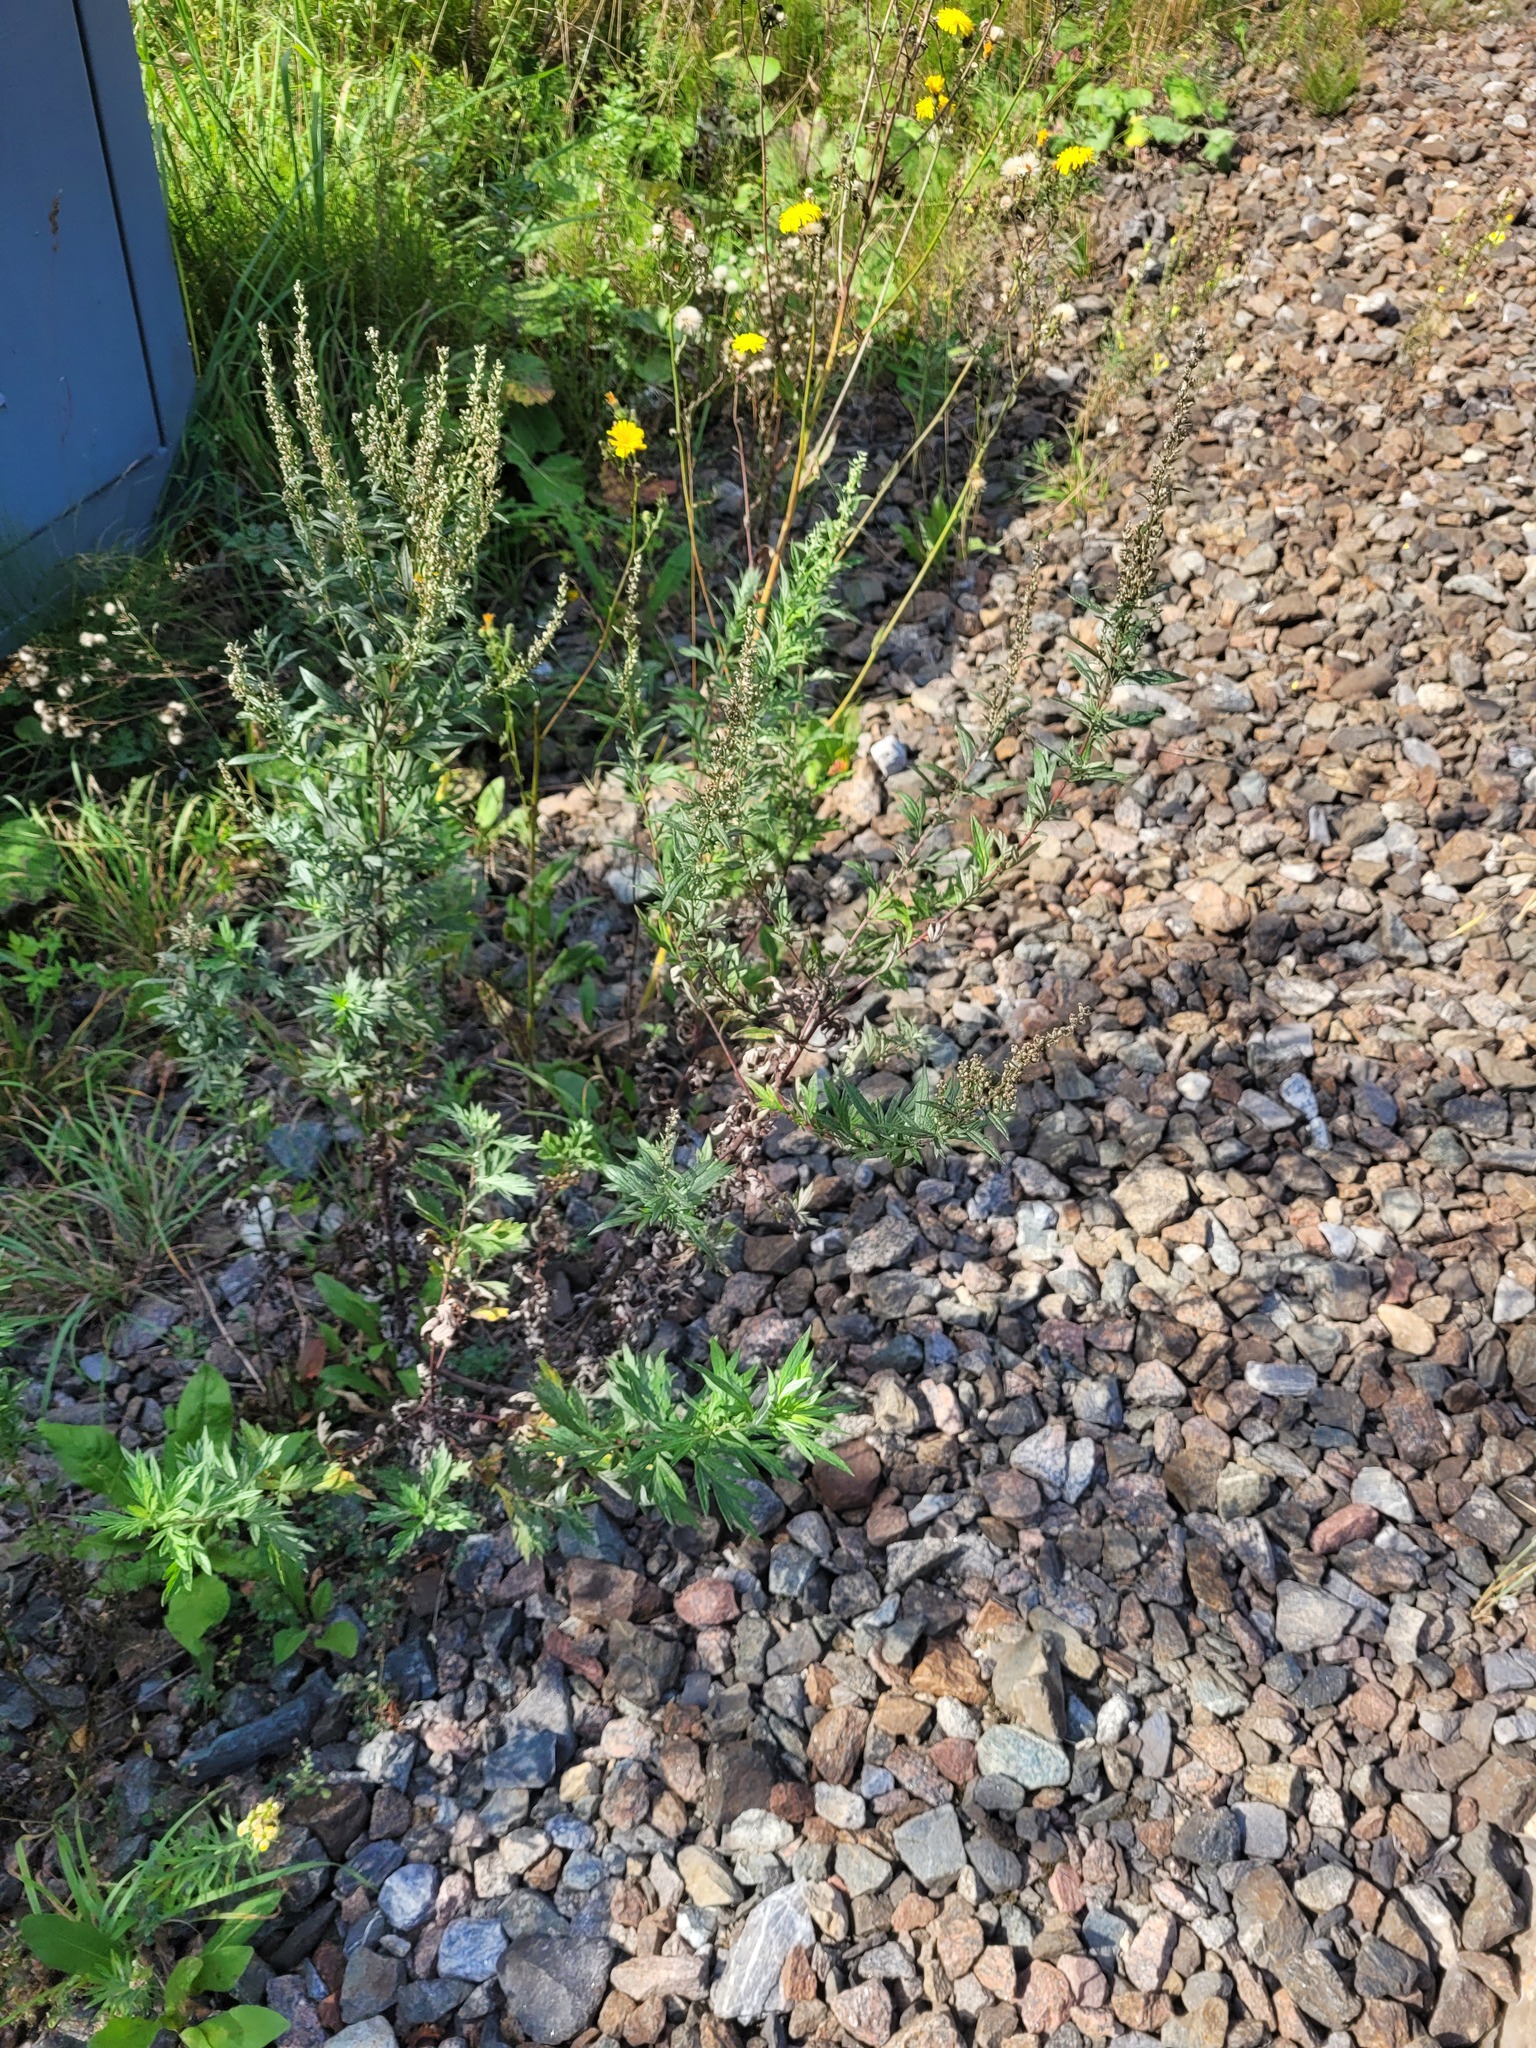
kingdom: Plantae
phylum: Tracheophyta
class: Magnoliopsida
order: Asterales
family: Asteraceae
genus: Artemisia
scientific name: Artemisia vulgaris
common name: Mugwort
